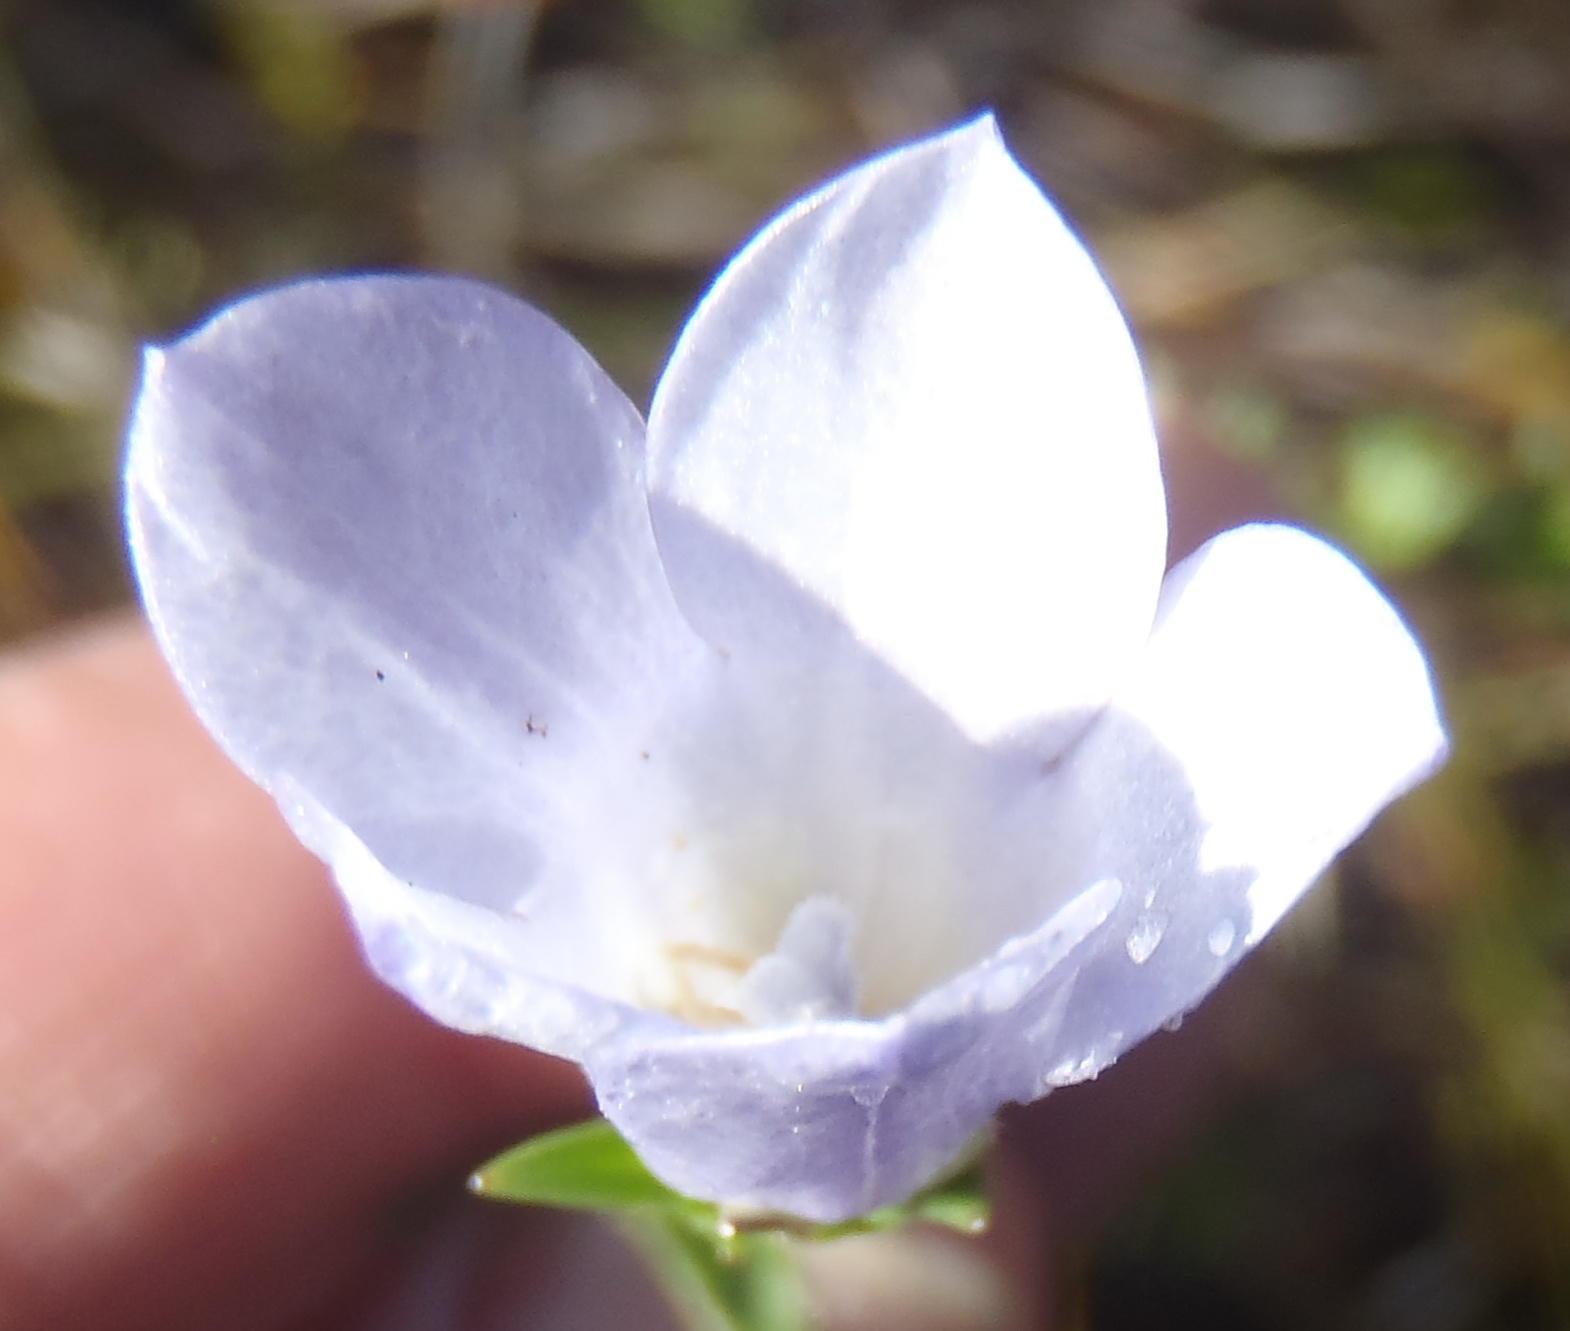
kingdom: Plantae
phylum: Tracheophyta
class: Magnoliopsida
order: Asterales
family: Campanulaceae
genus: Prismatocarpus
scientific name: Prismatocarpus candolleanus
